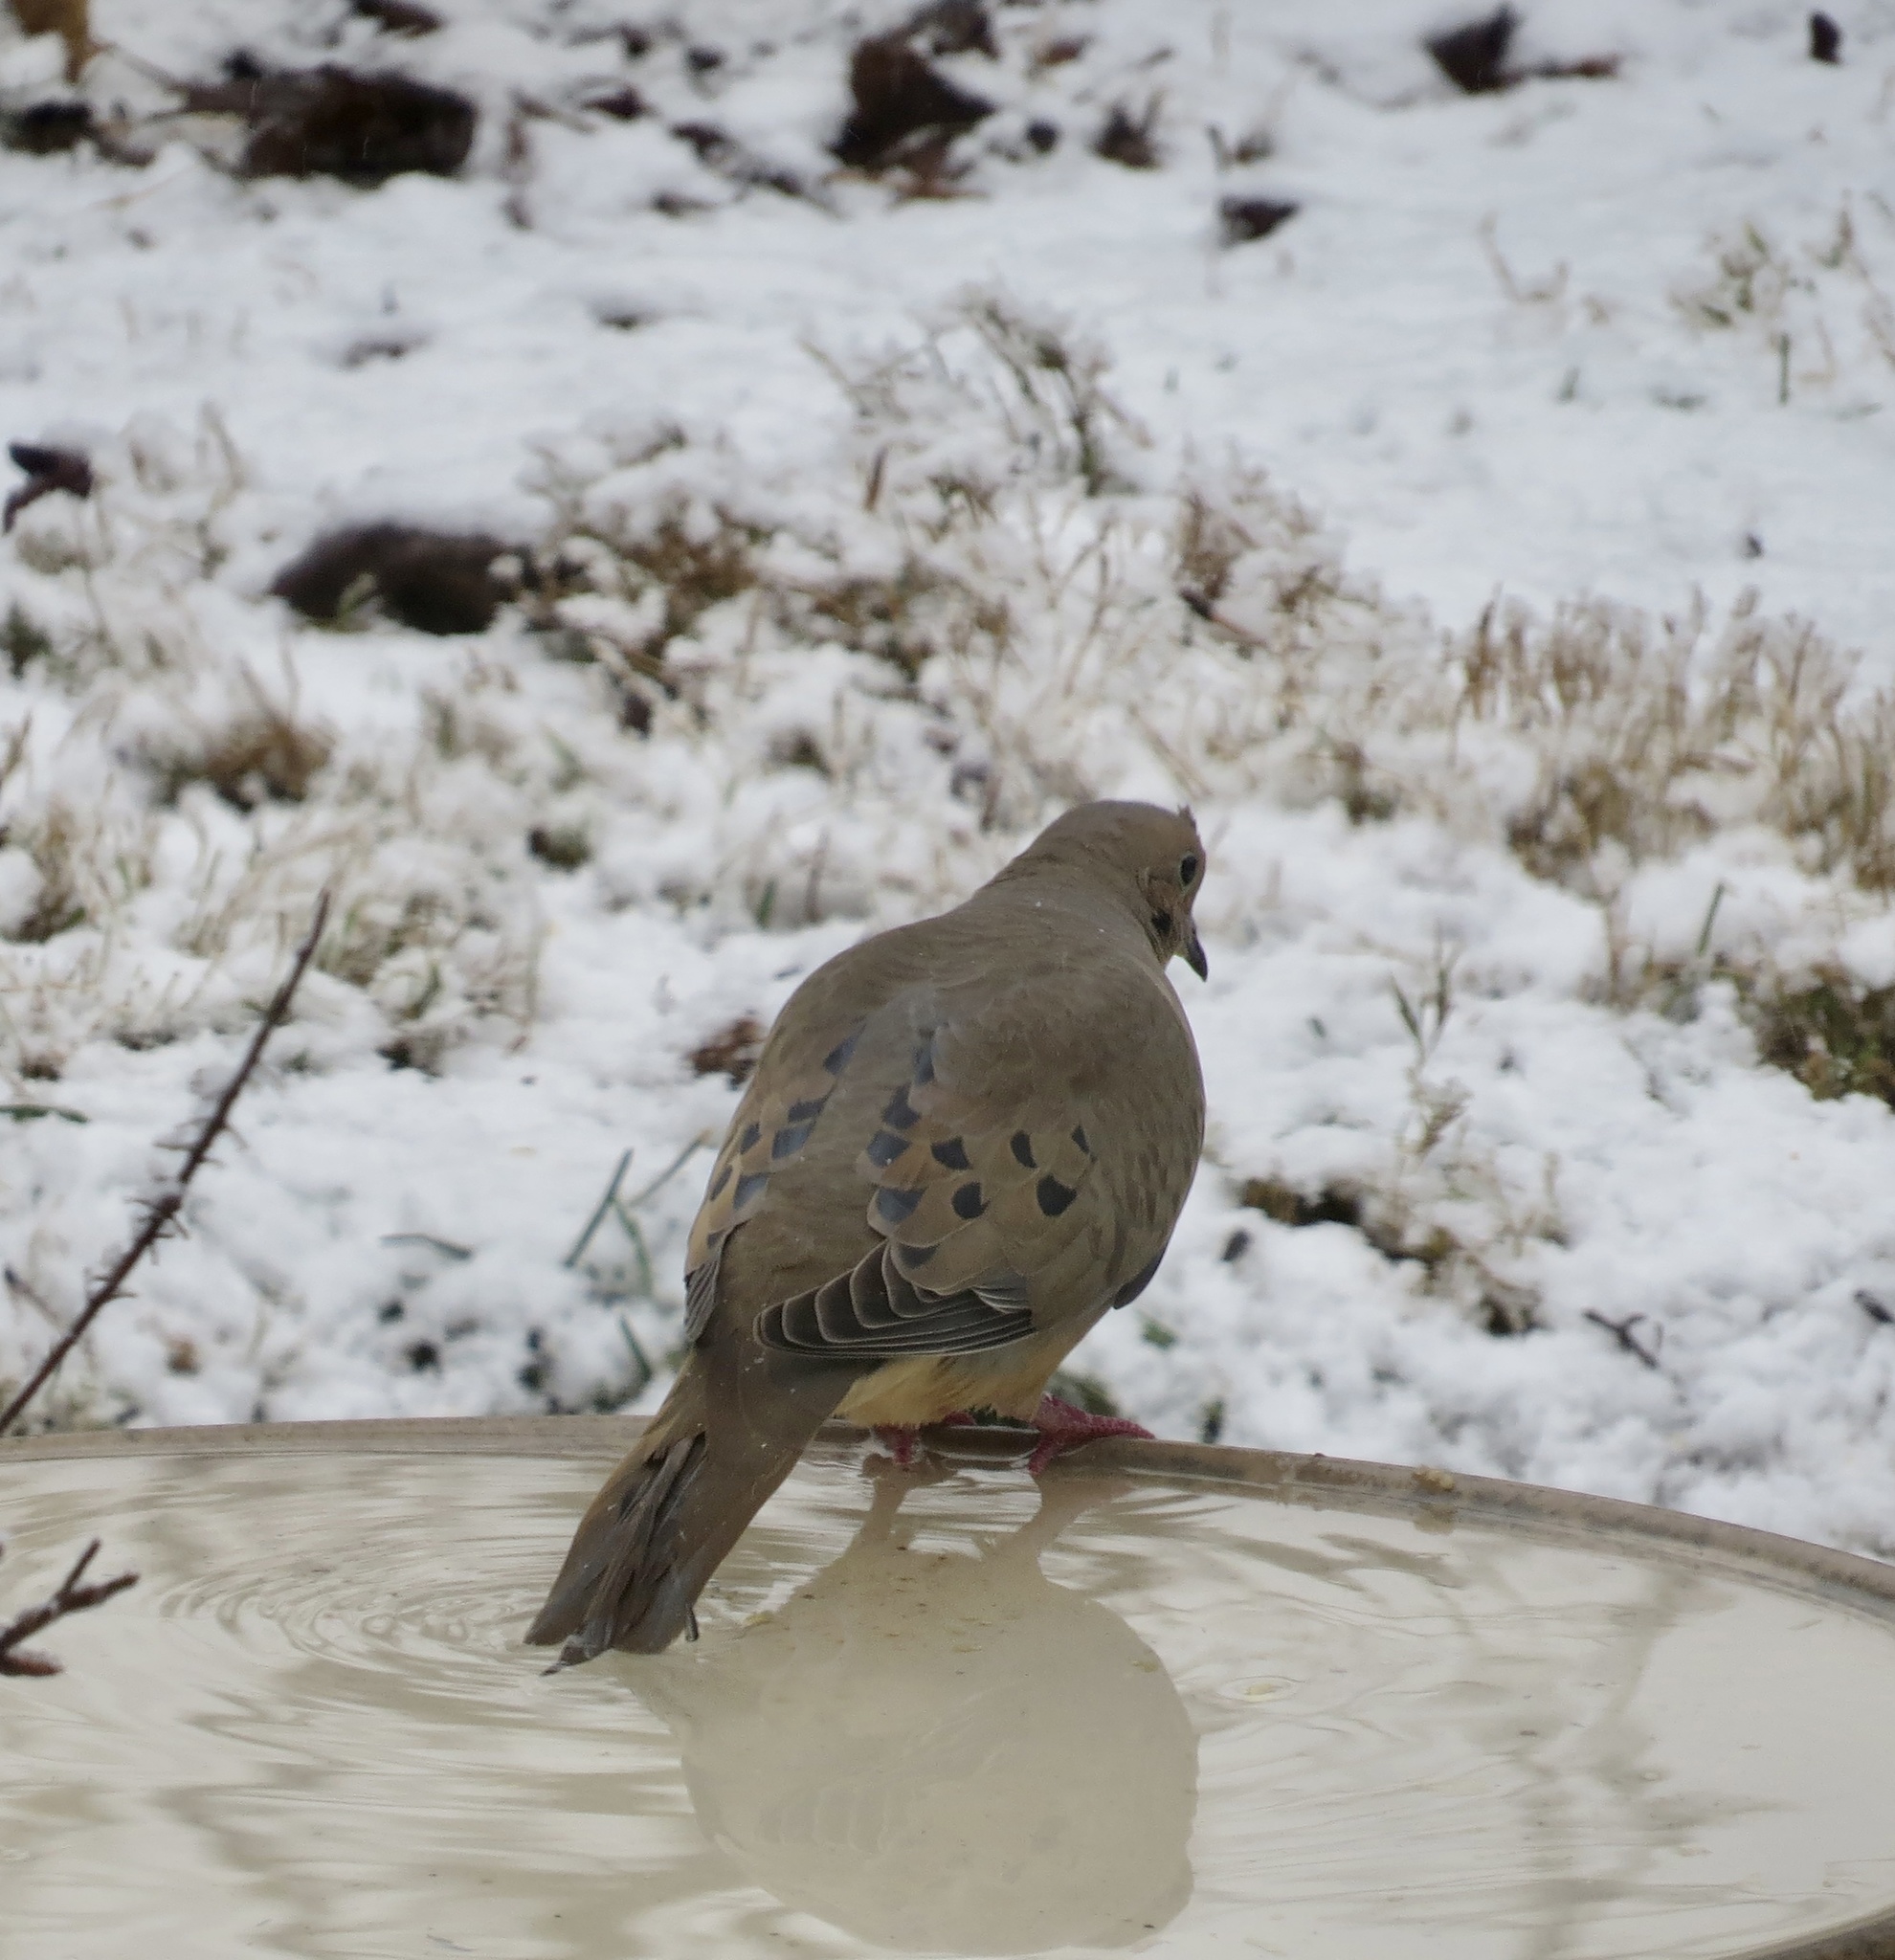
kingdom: Animalia
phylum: Chordata
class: Aves
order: Columbiformes
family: Columbidae
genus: Zenaida
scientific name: Zenaida macroura
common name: Mourning dove
